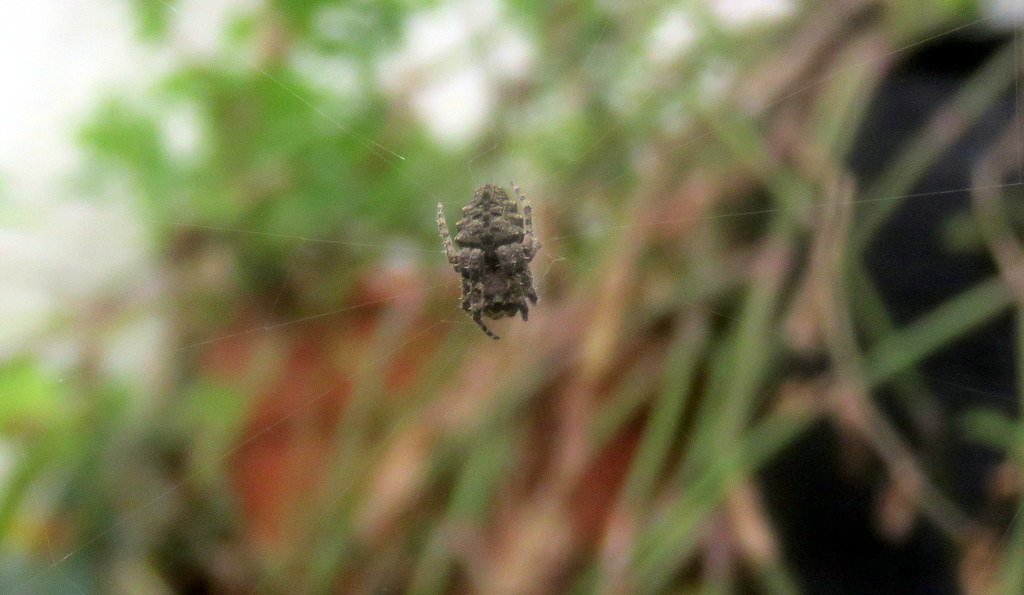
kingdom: Animalia
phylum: Arthropoda
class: Arachnida
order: Araneae
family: Araneidae
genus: Parawixia
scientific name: Parawixia audax
